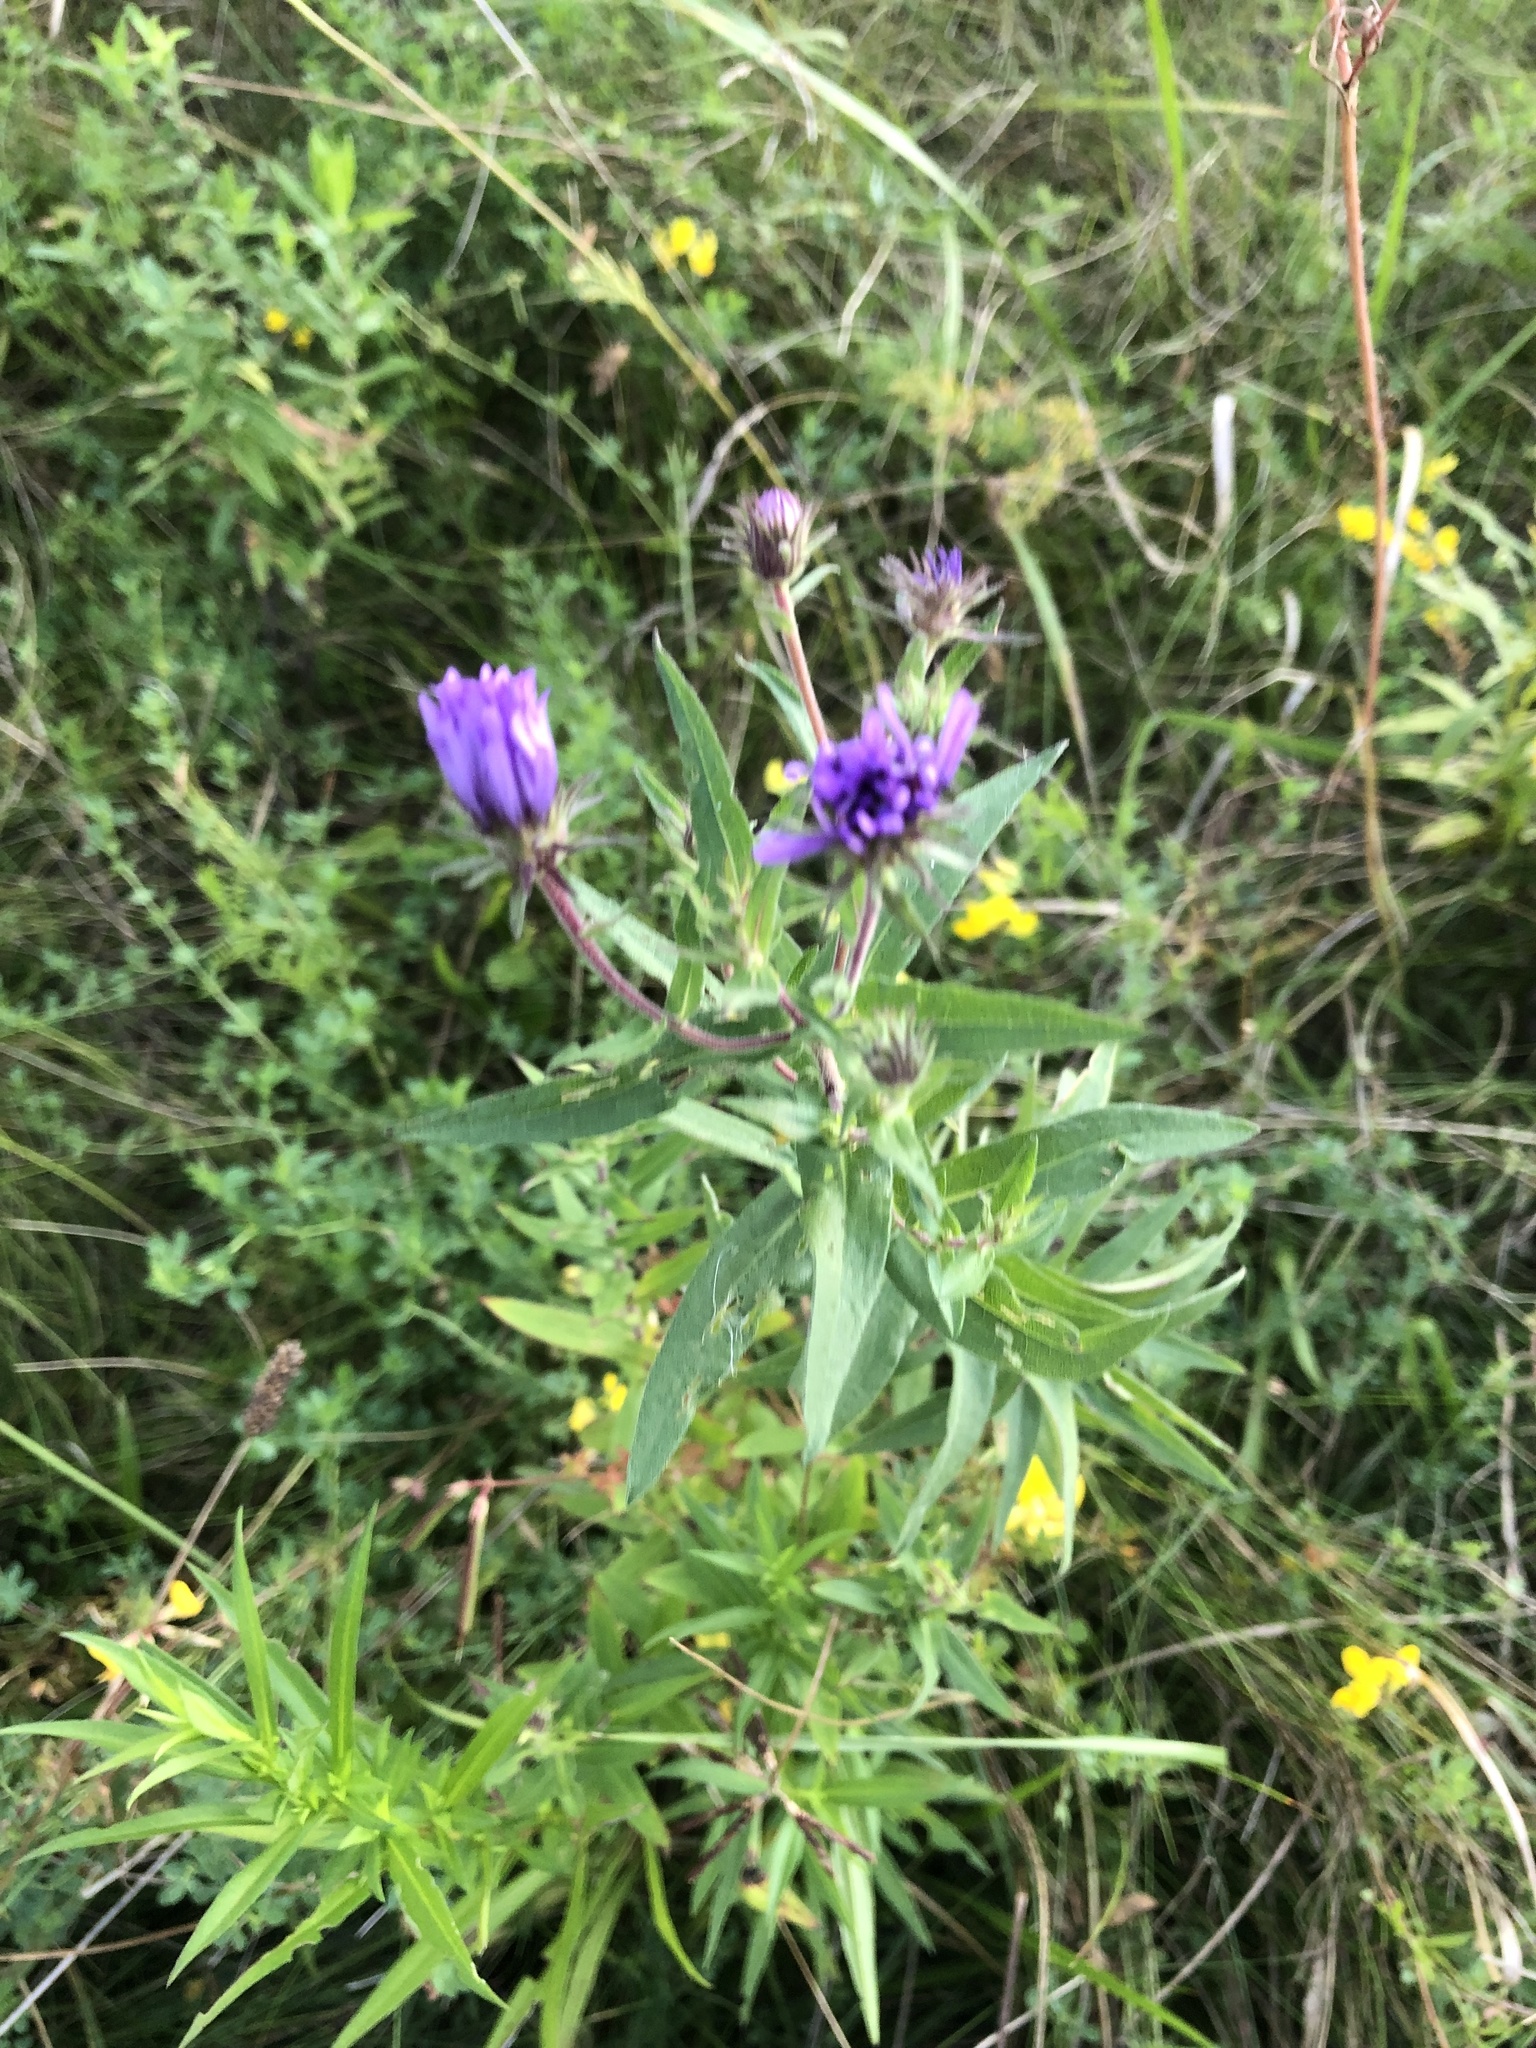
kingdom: Plantae
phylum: Tracheophyta
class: Magnoliopsida
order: Asterales
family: Asteraceae
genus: Symphyotrichum
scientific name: Symphyotrichum novae-angliae
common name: Michaelmas daisy
